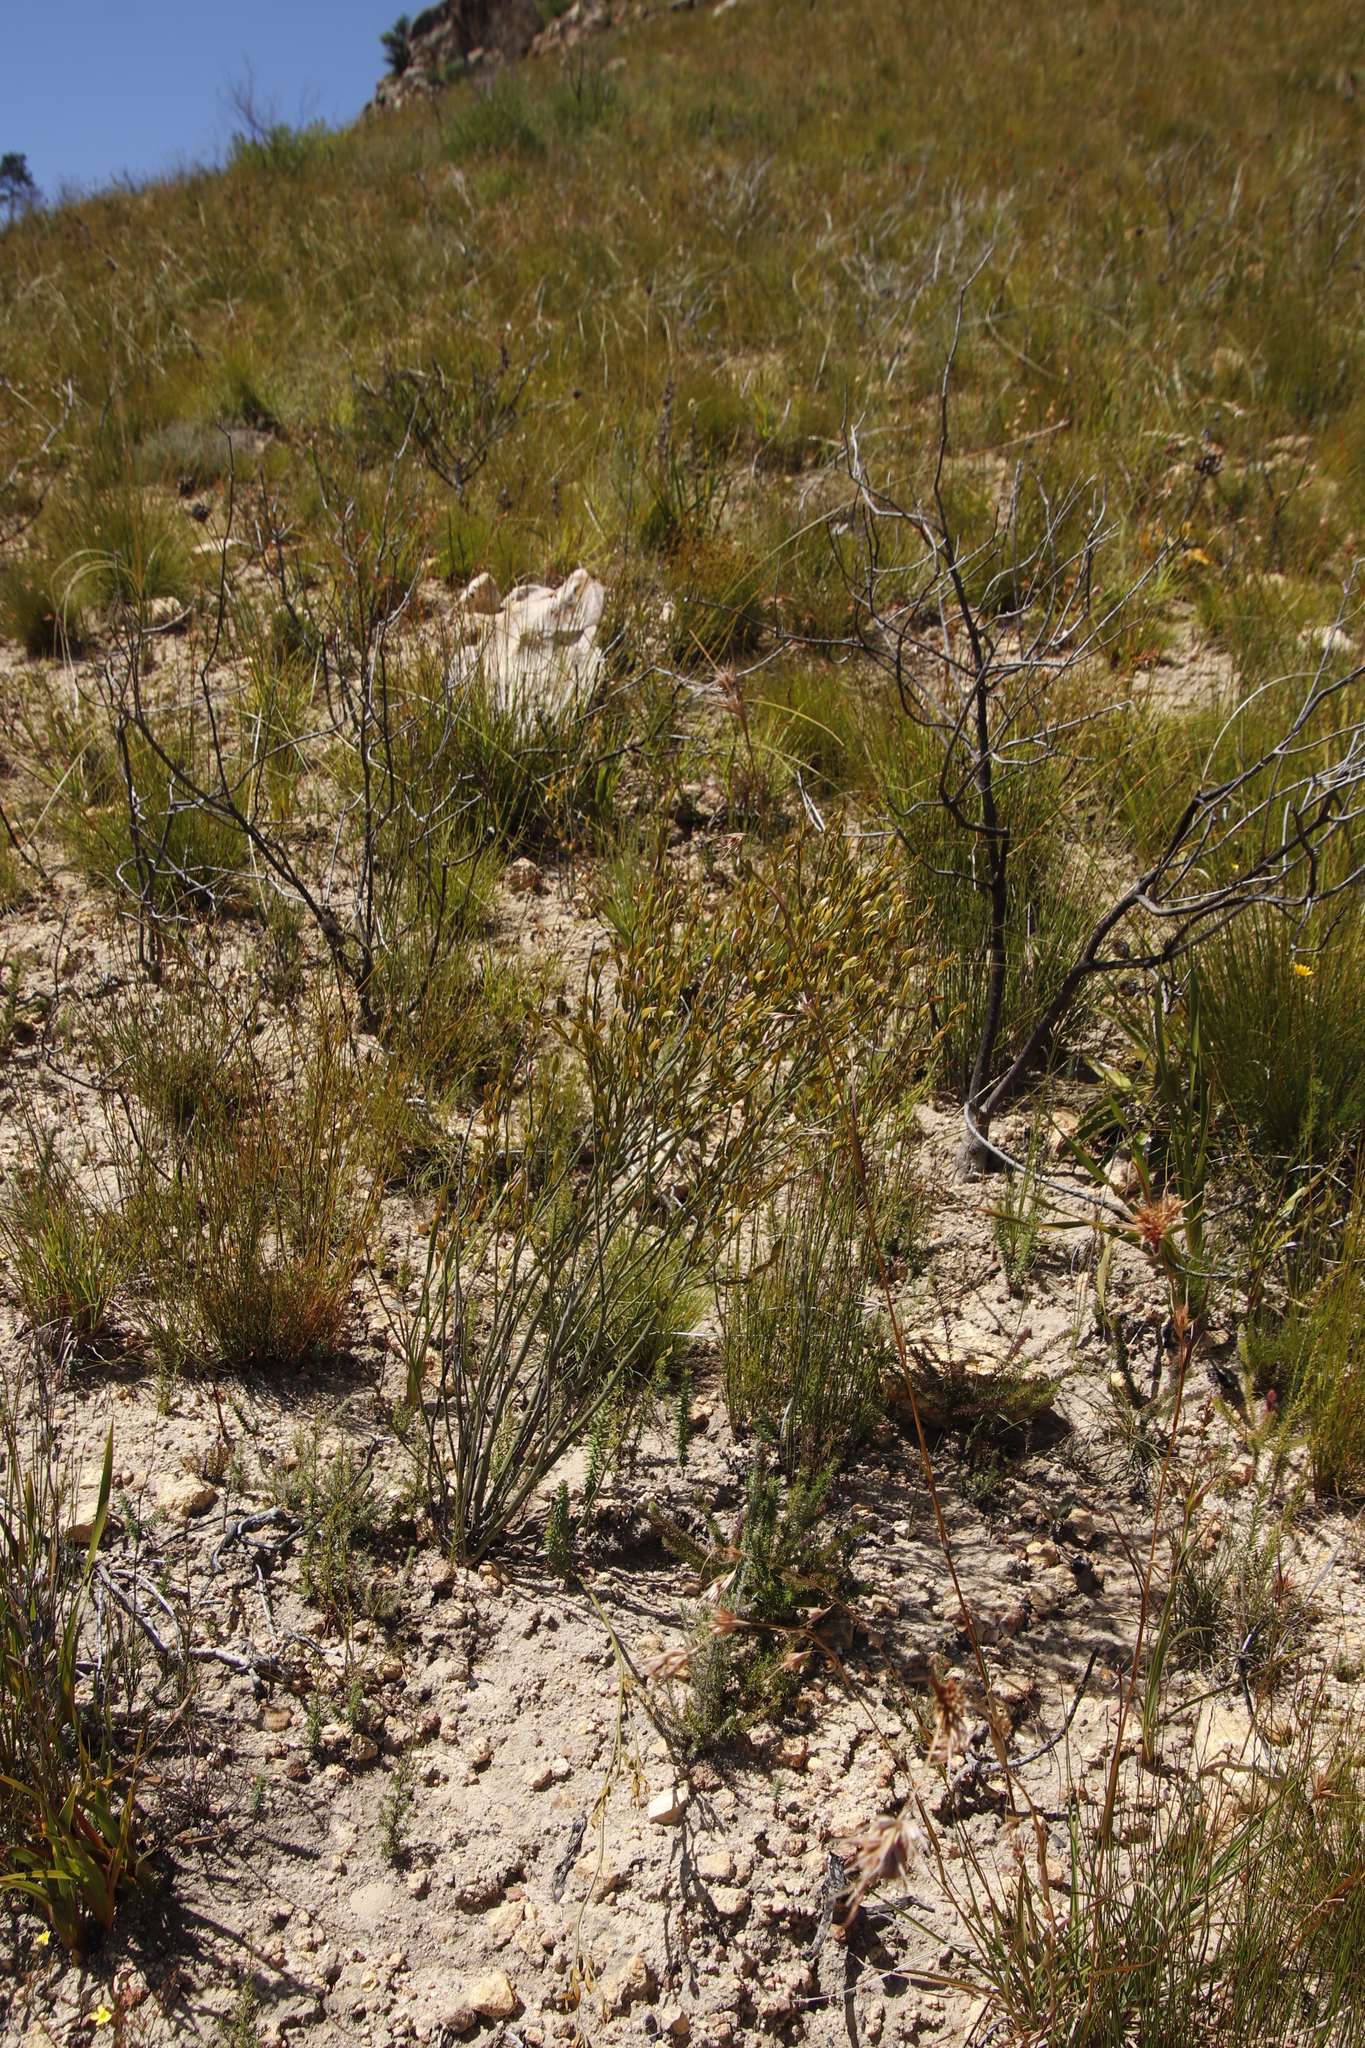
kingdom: Plantae
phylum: Tracheophyta
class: Magnoliopsida
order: Solanales
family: Montiniaceae
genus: Montinia
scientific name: Montinia caryophyllacea
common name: Wild clove-bush
